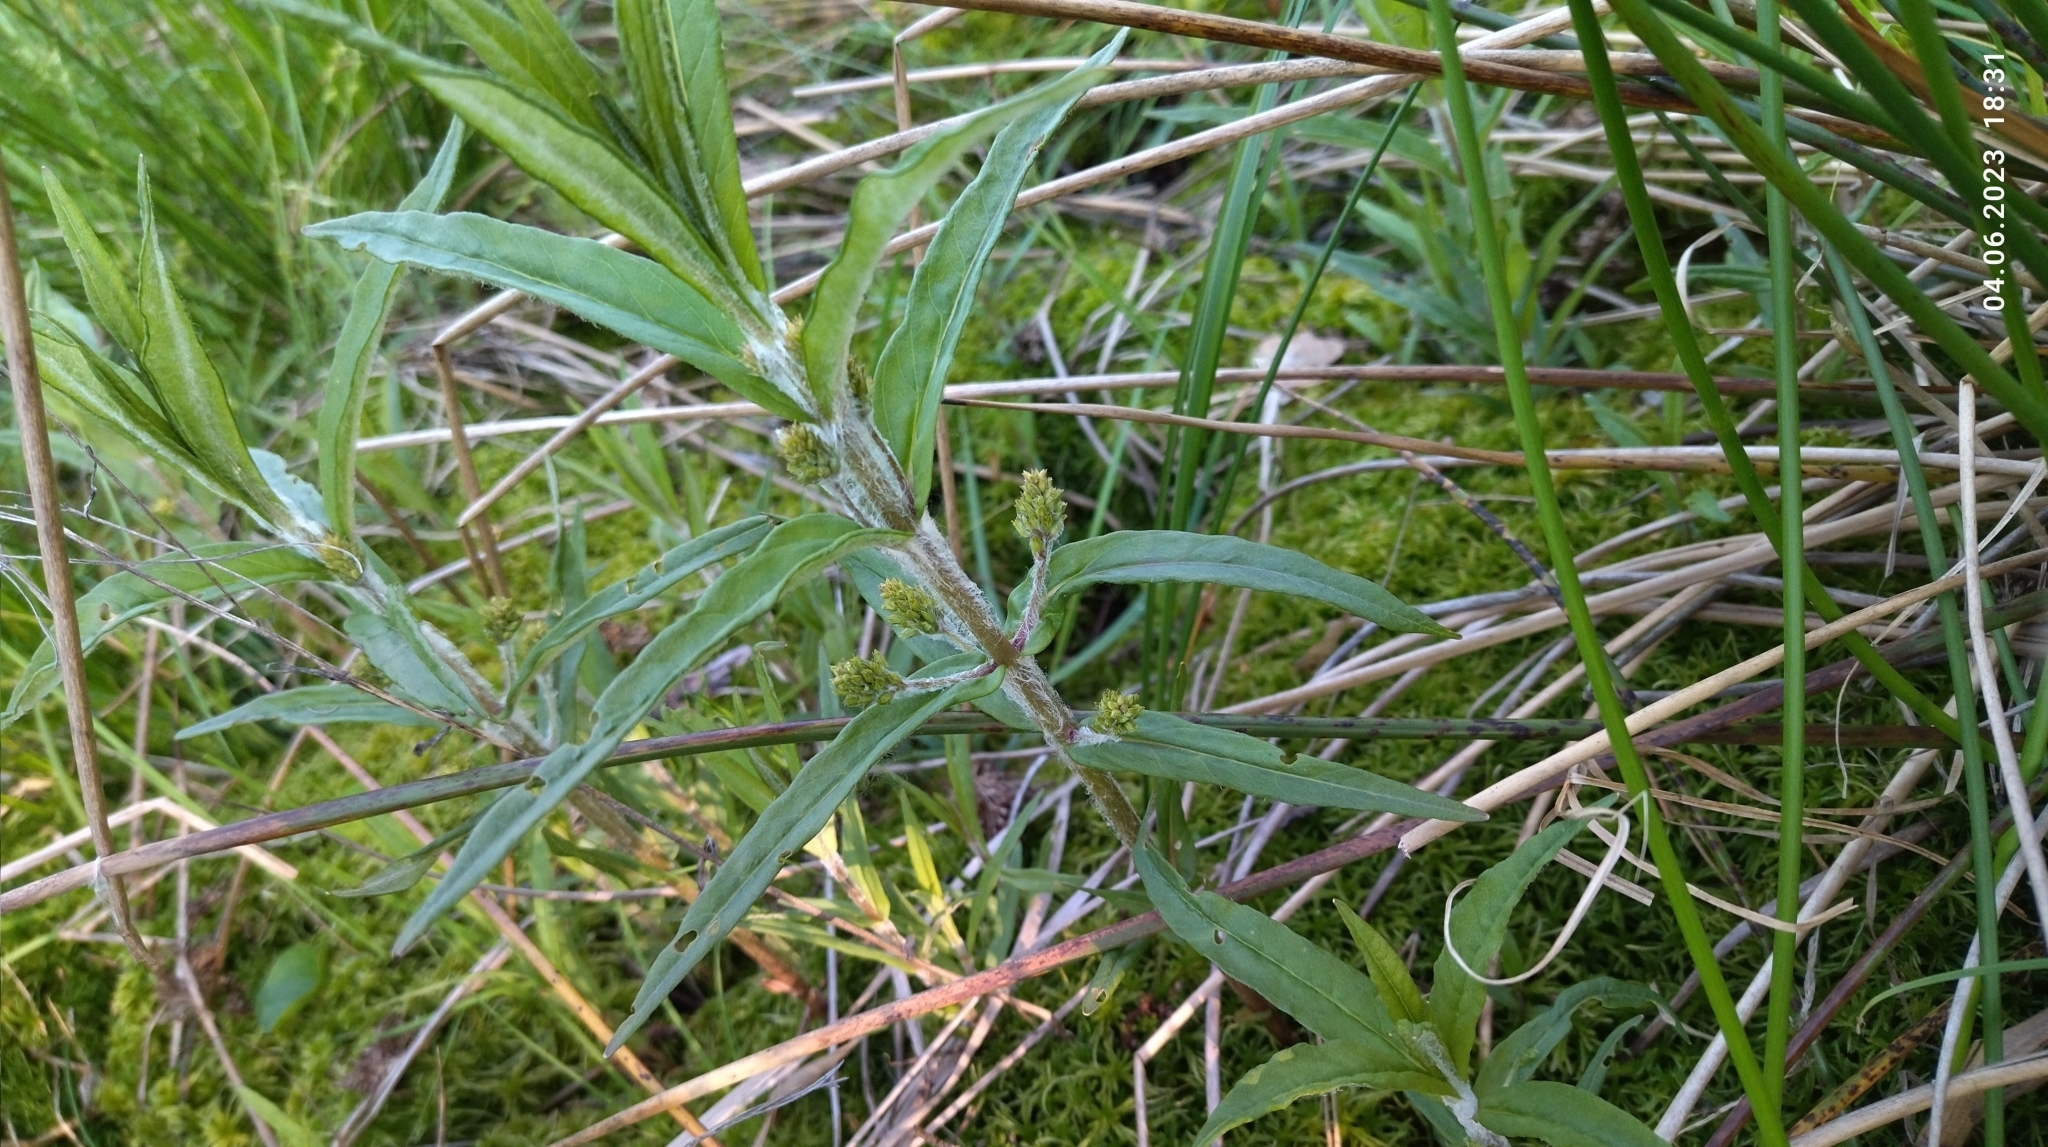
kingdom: Plantae
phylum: Tracheophyta
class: Magnoliopsida
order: Ericales
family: Primulaceae
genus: Lysimachia
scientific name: Lysimachia thyrsiflora
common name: Tufted loosestrife
